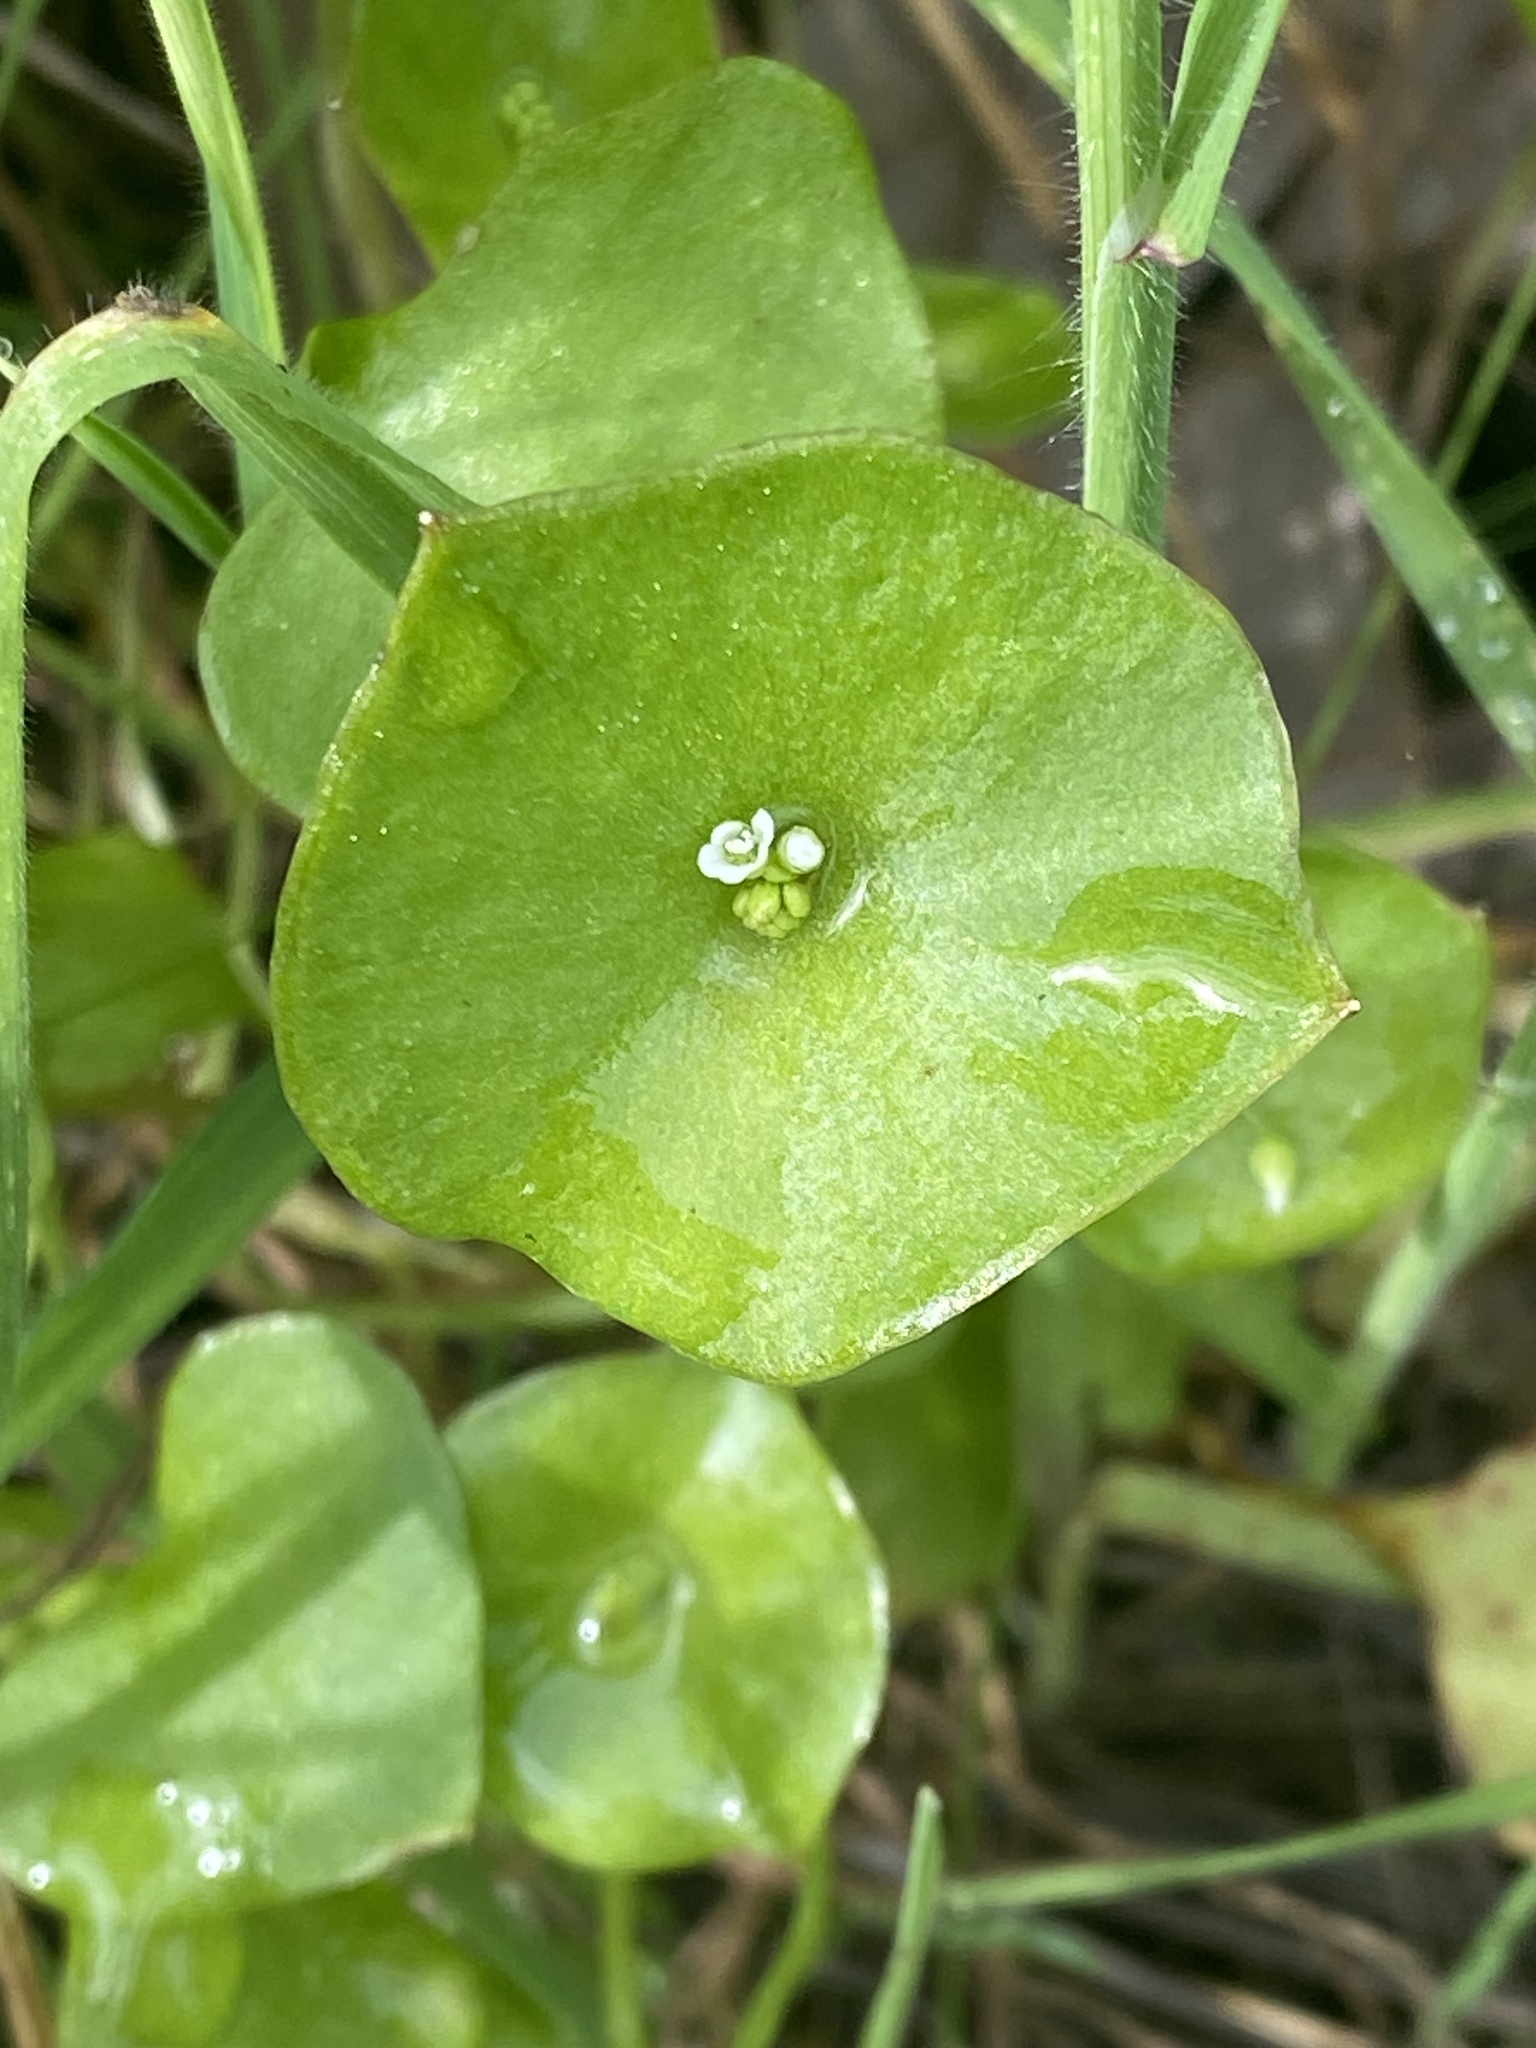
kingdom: Plantae
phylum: Tracheophyta
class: Magnoliopsida
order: Caryophyllales
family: Montiaceae
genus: Claytonia
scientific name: Claytonia perfoliata
